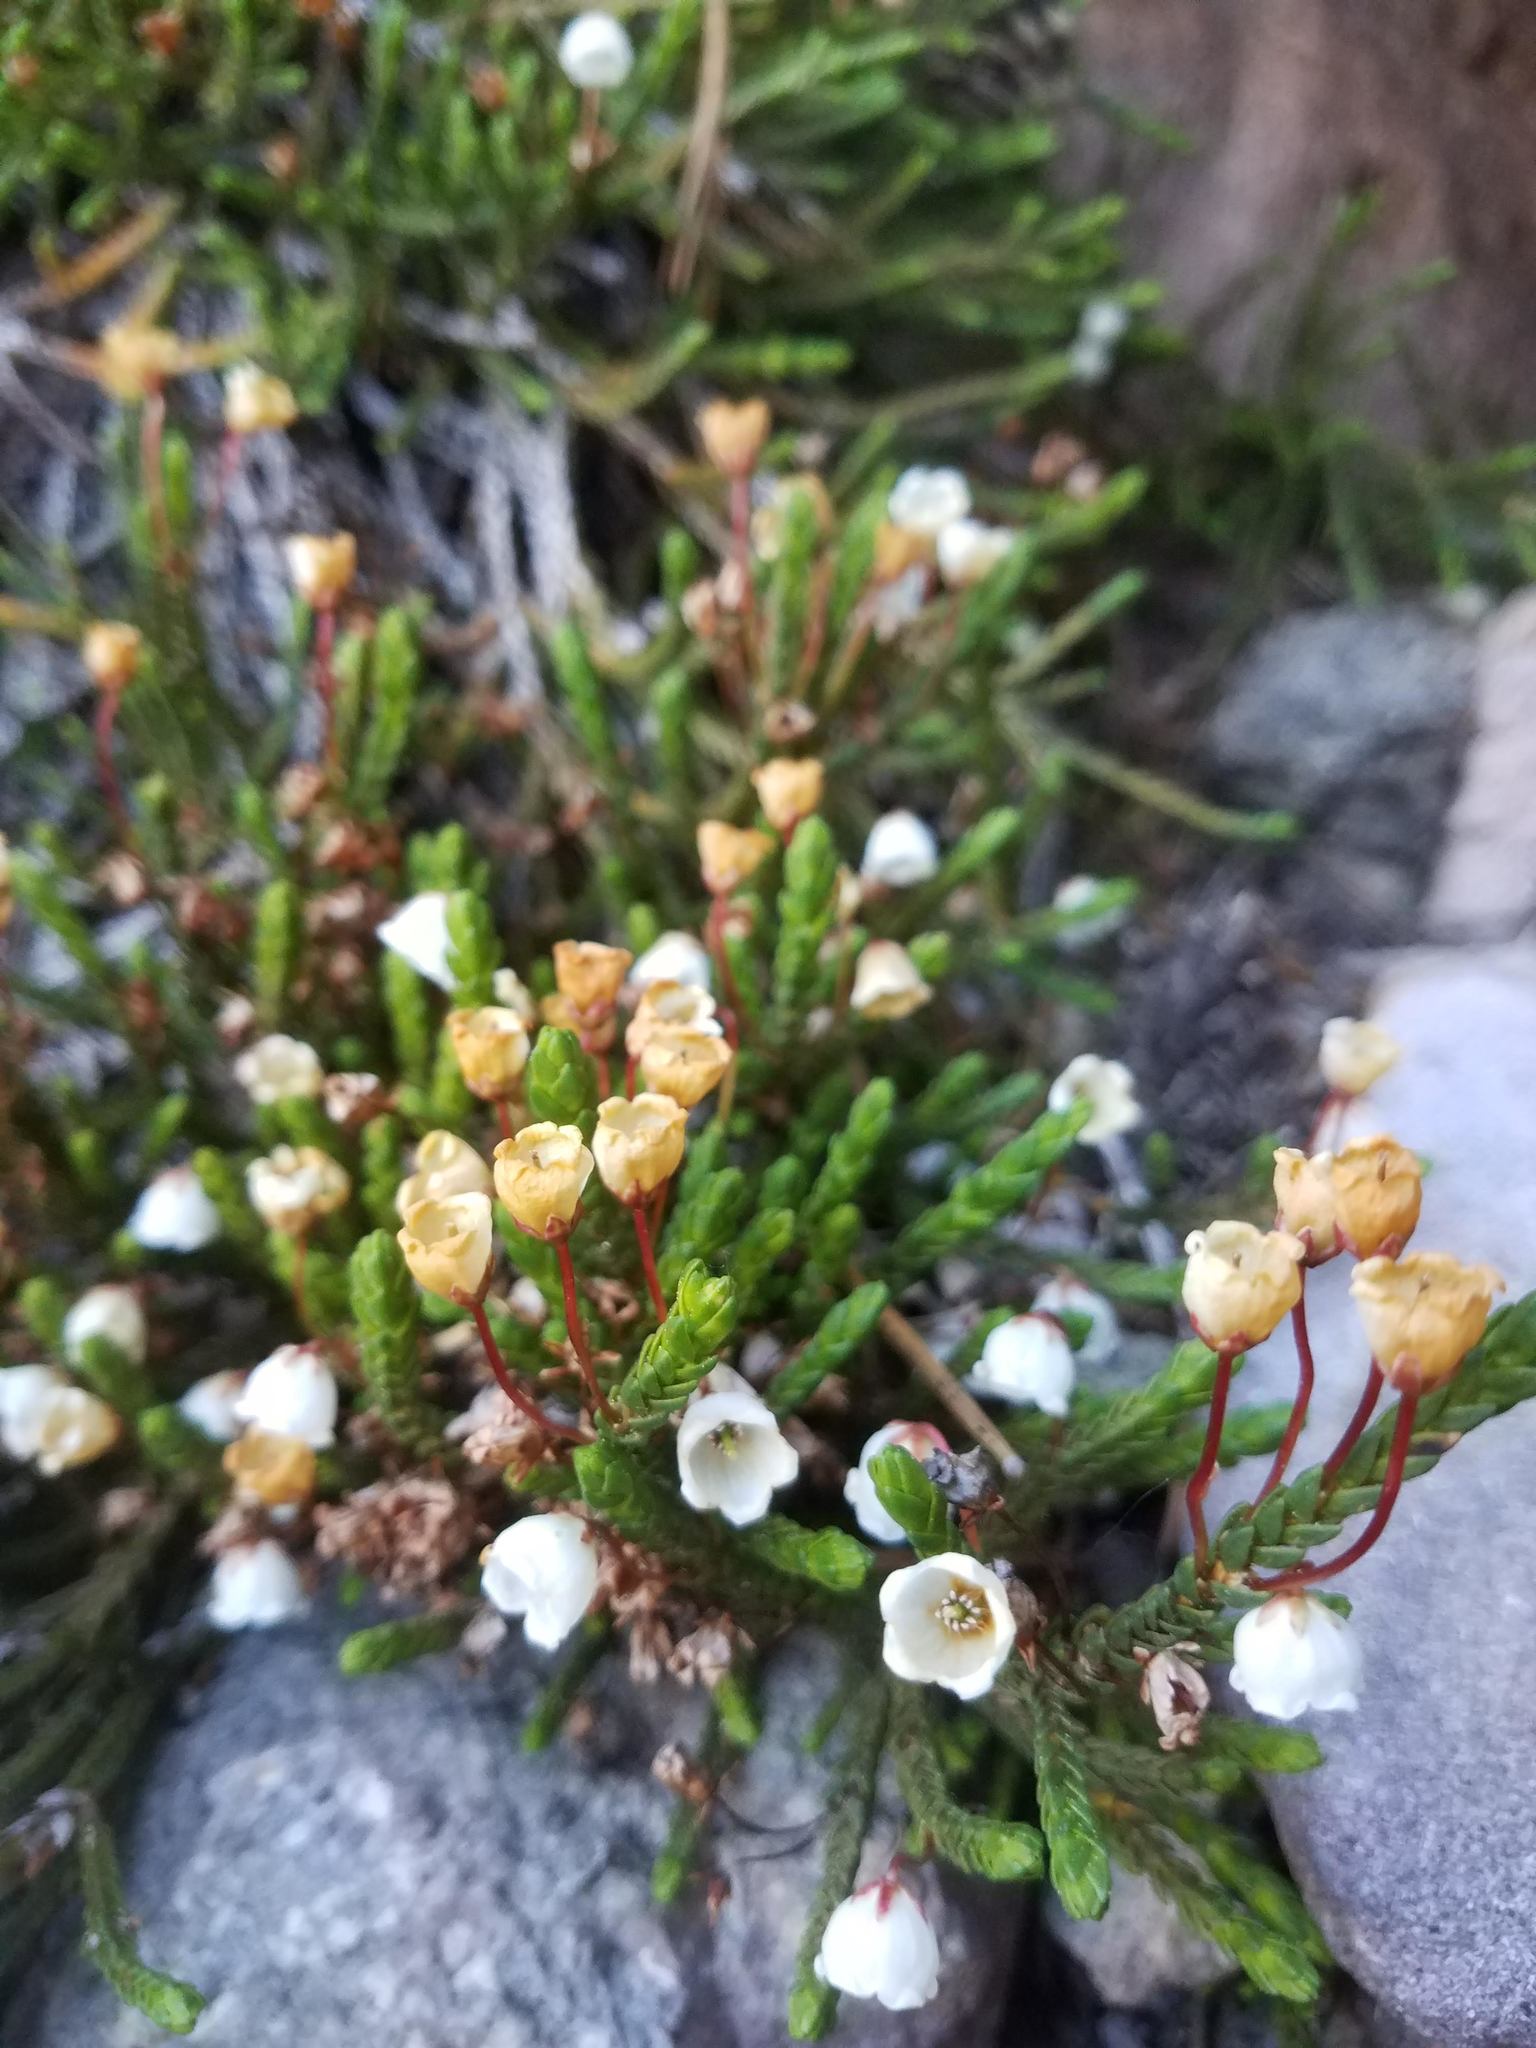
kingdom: Plantae
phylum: Tracheophyta
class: Magnoliopsida
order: Ericales
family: Ericaceae
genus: Cassiope
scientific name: Cassiope mertensiana
